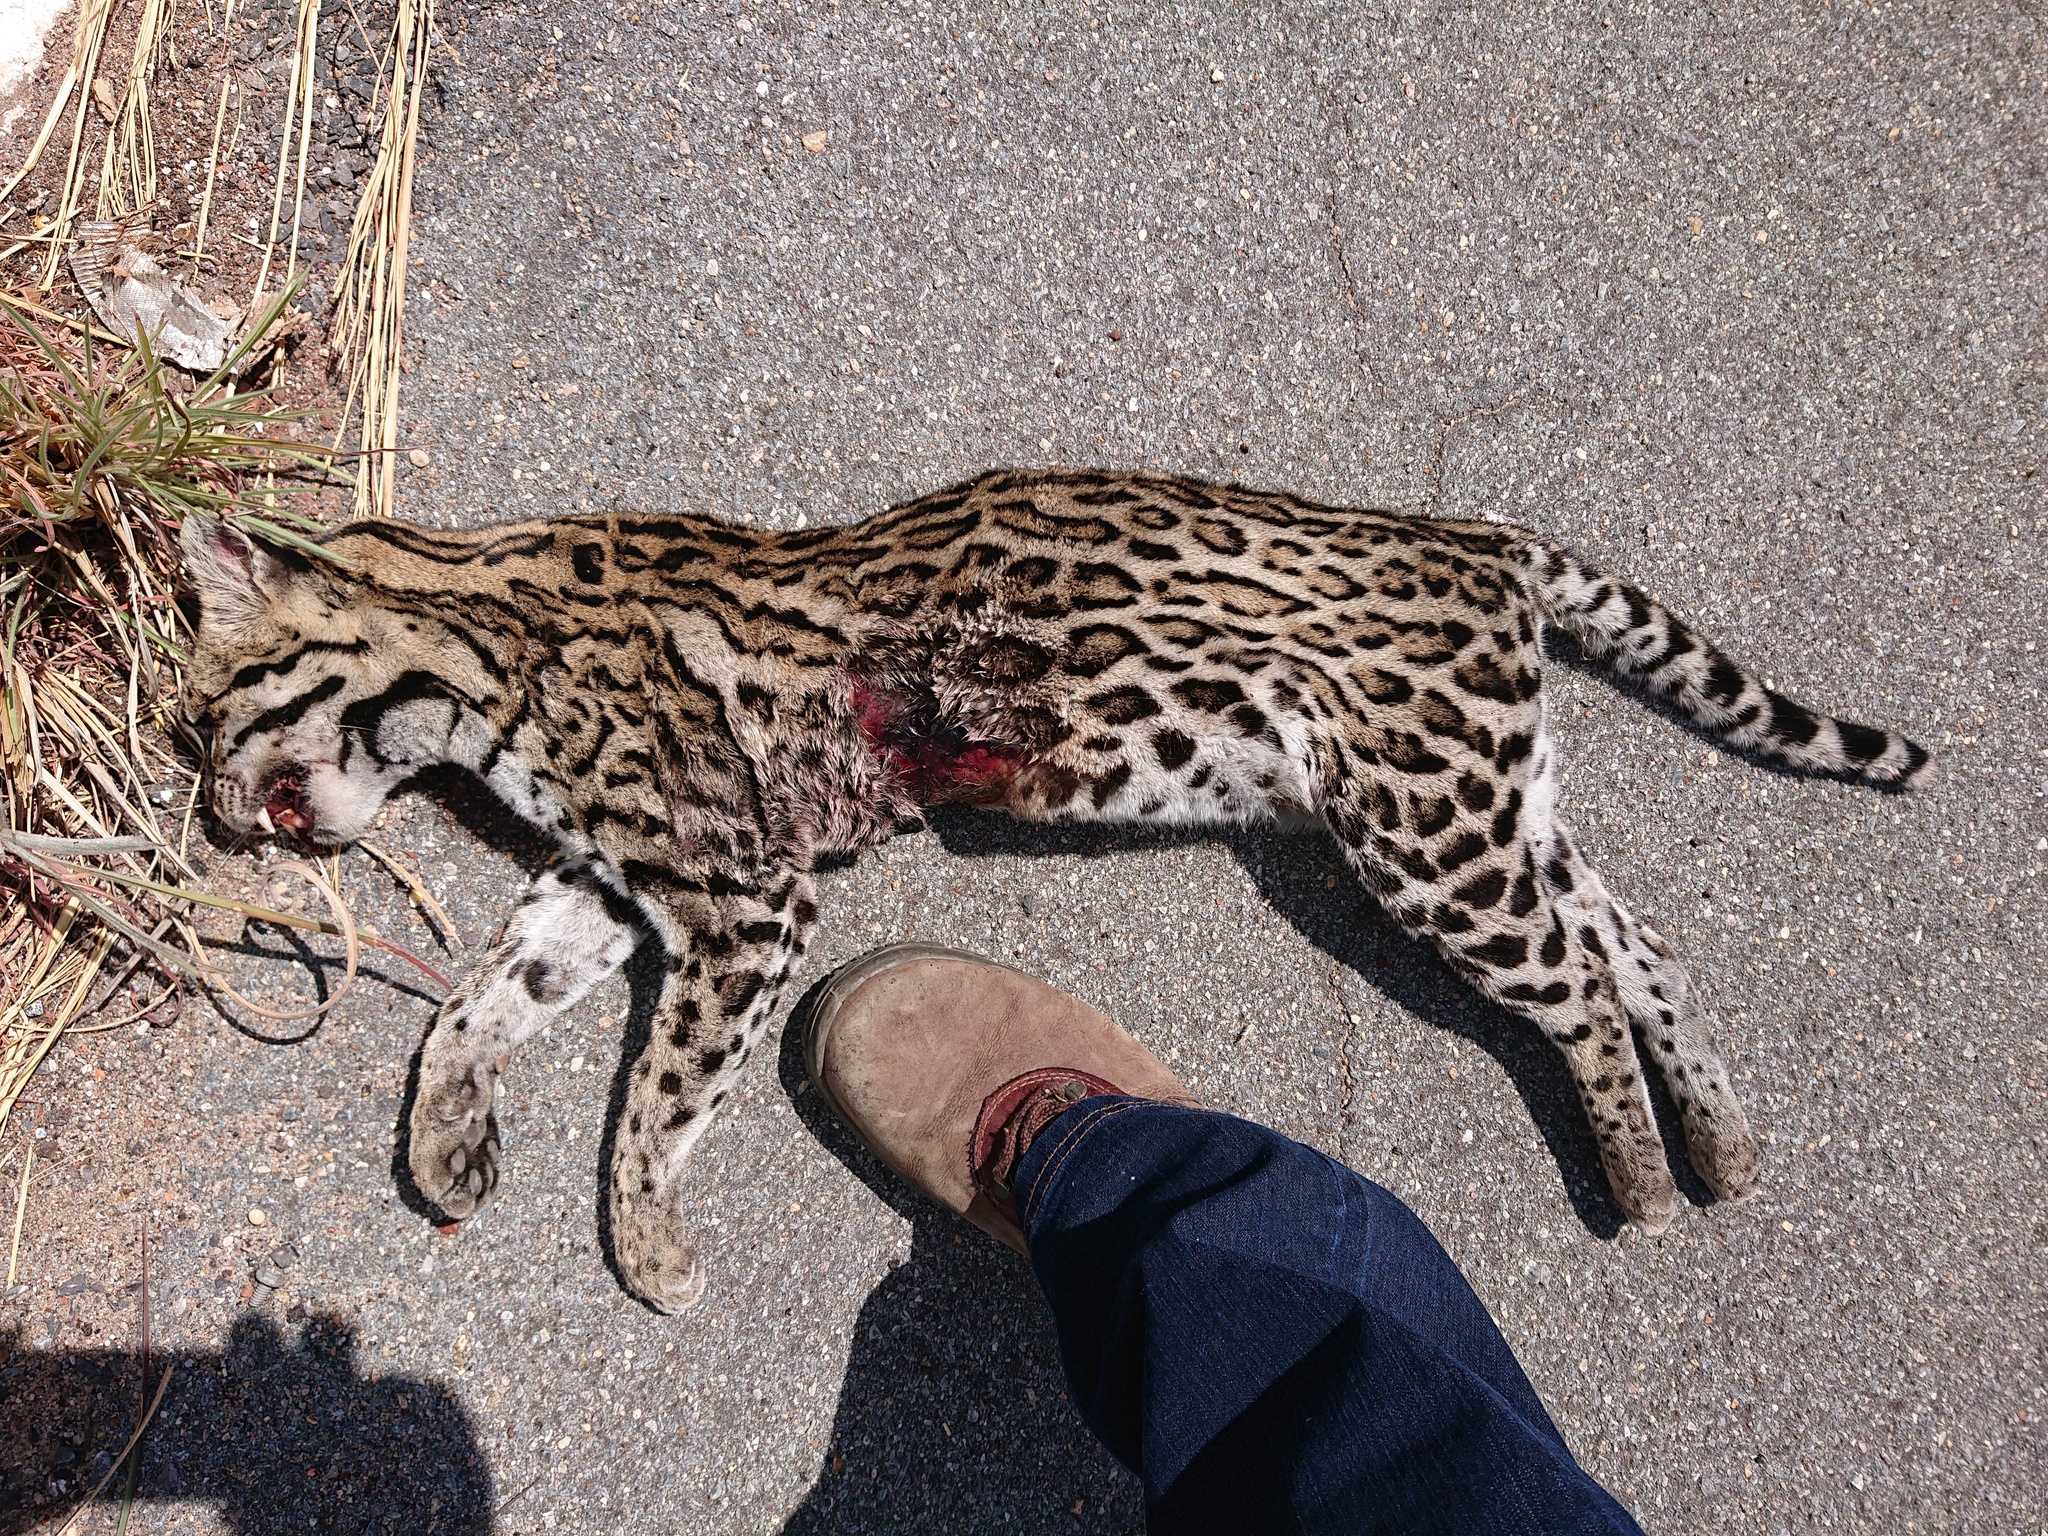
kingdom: Animalia
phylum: Chordata
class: Mammalia
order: Carnivora
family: Felidae
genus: Leopardus
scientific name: Leopardus pardalis
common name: Ocelot
